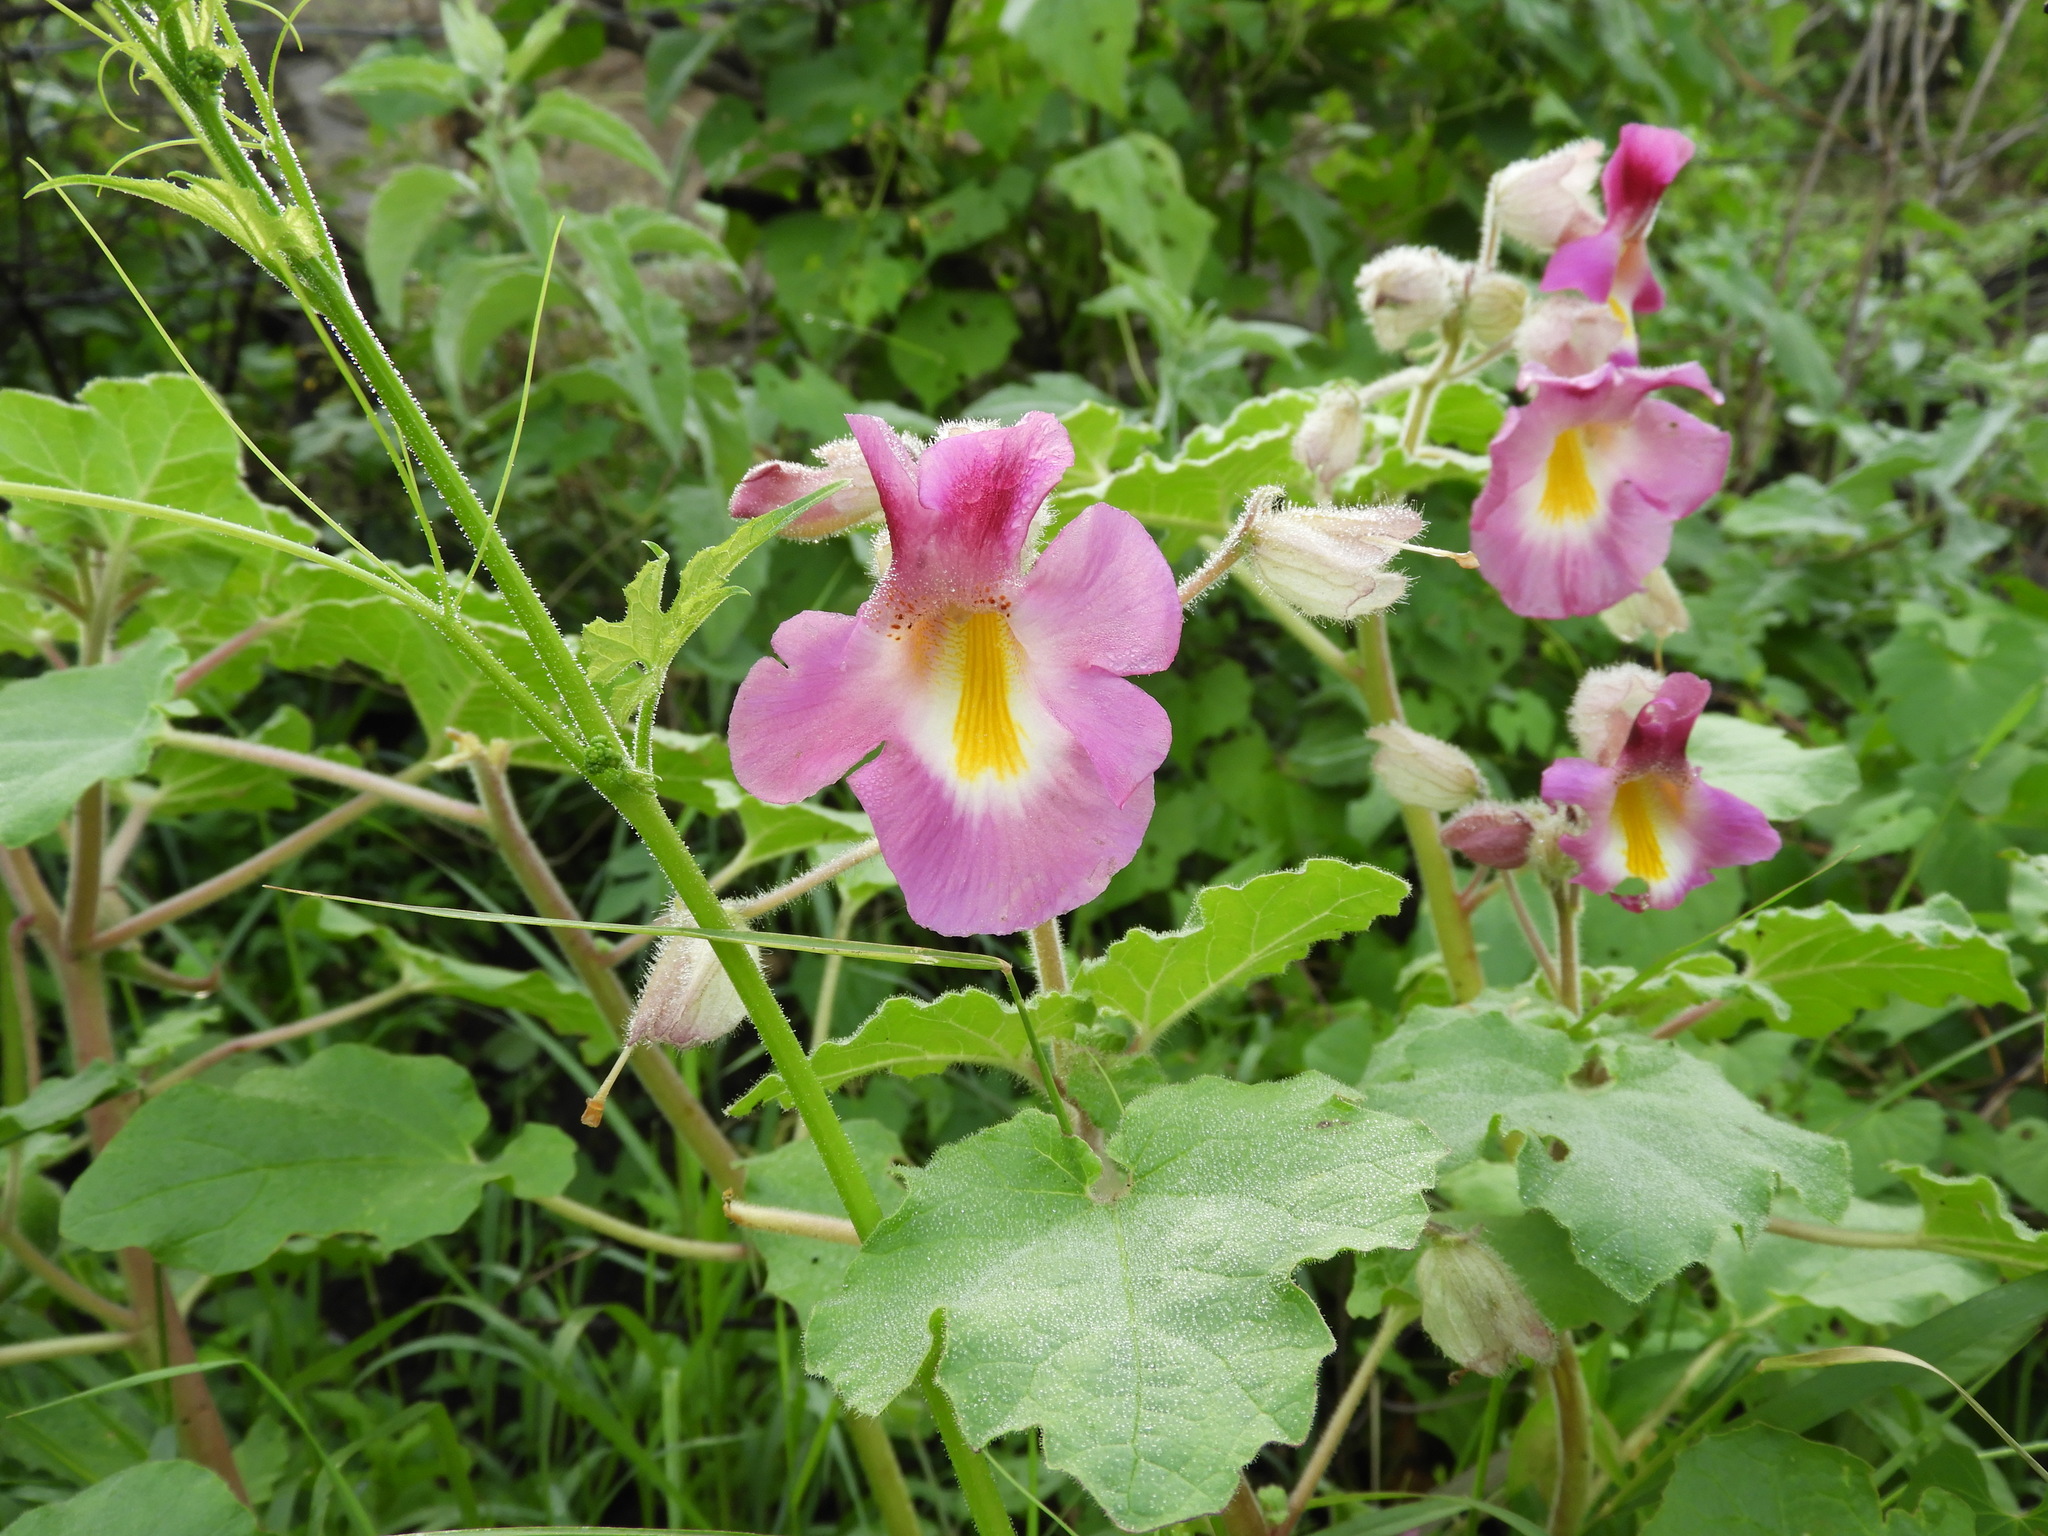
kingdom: Plantae
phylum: Tracheophyta
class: Magnoliopsida
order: Lamiales
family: Martyniaceae
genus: Proboscidea
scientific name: Proboscidea parviflora
